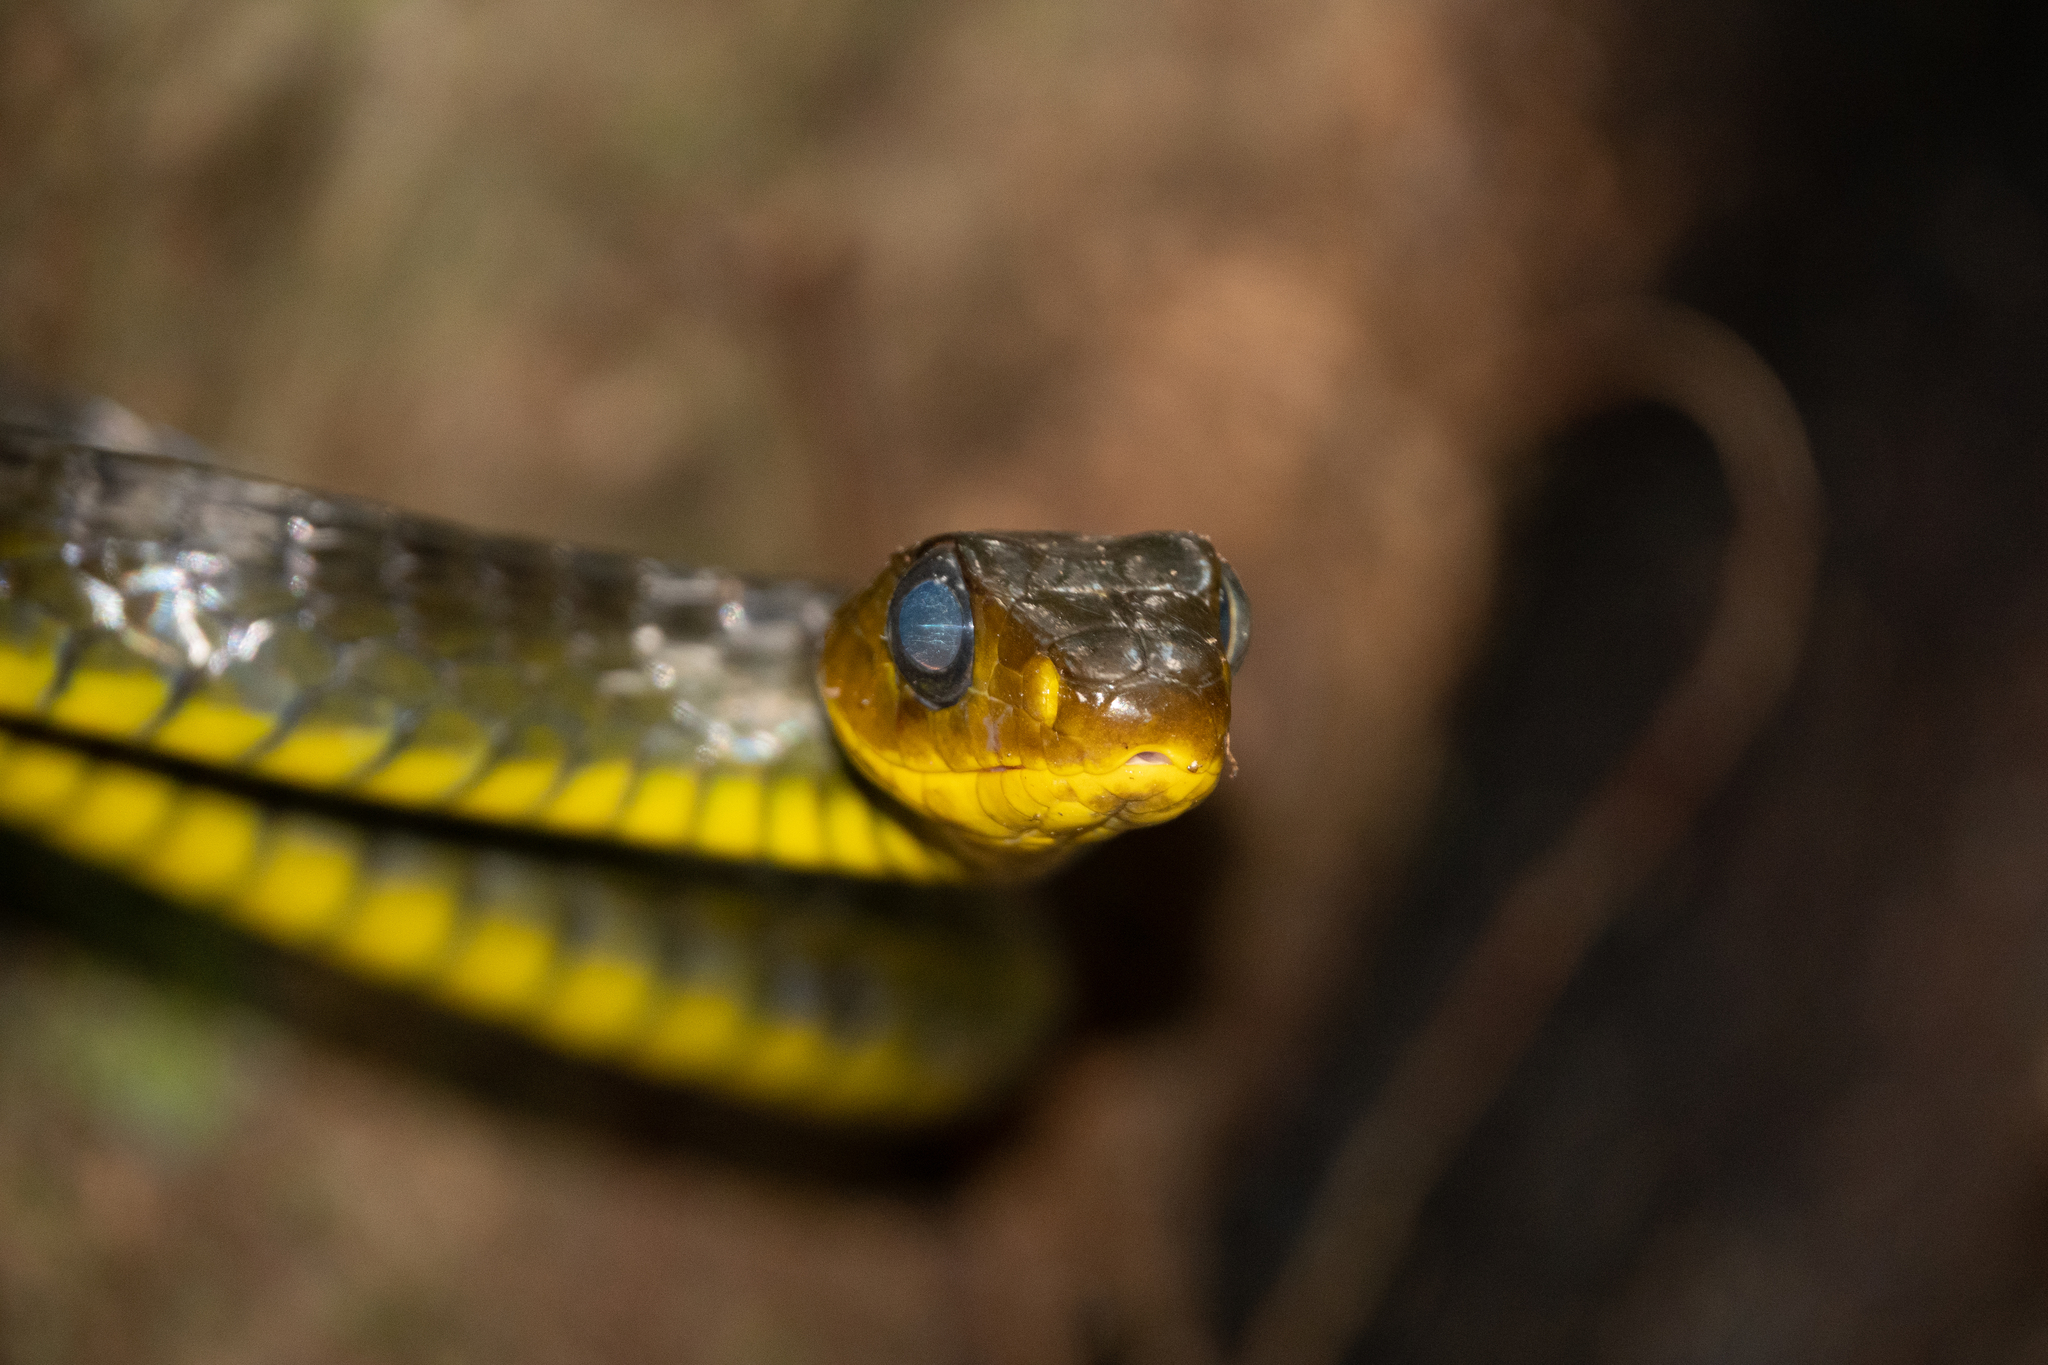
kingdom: Animalia
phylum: Chordata
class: Squamata
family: Colubridae
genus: Chironius
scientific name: Chironius exoletus
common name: Linnaeus' sipo
